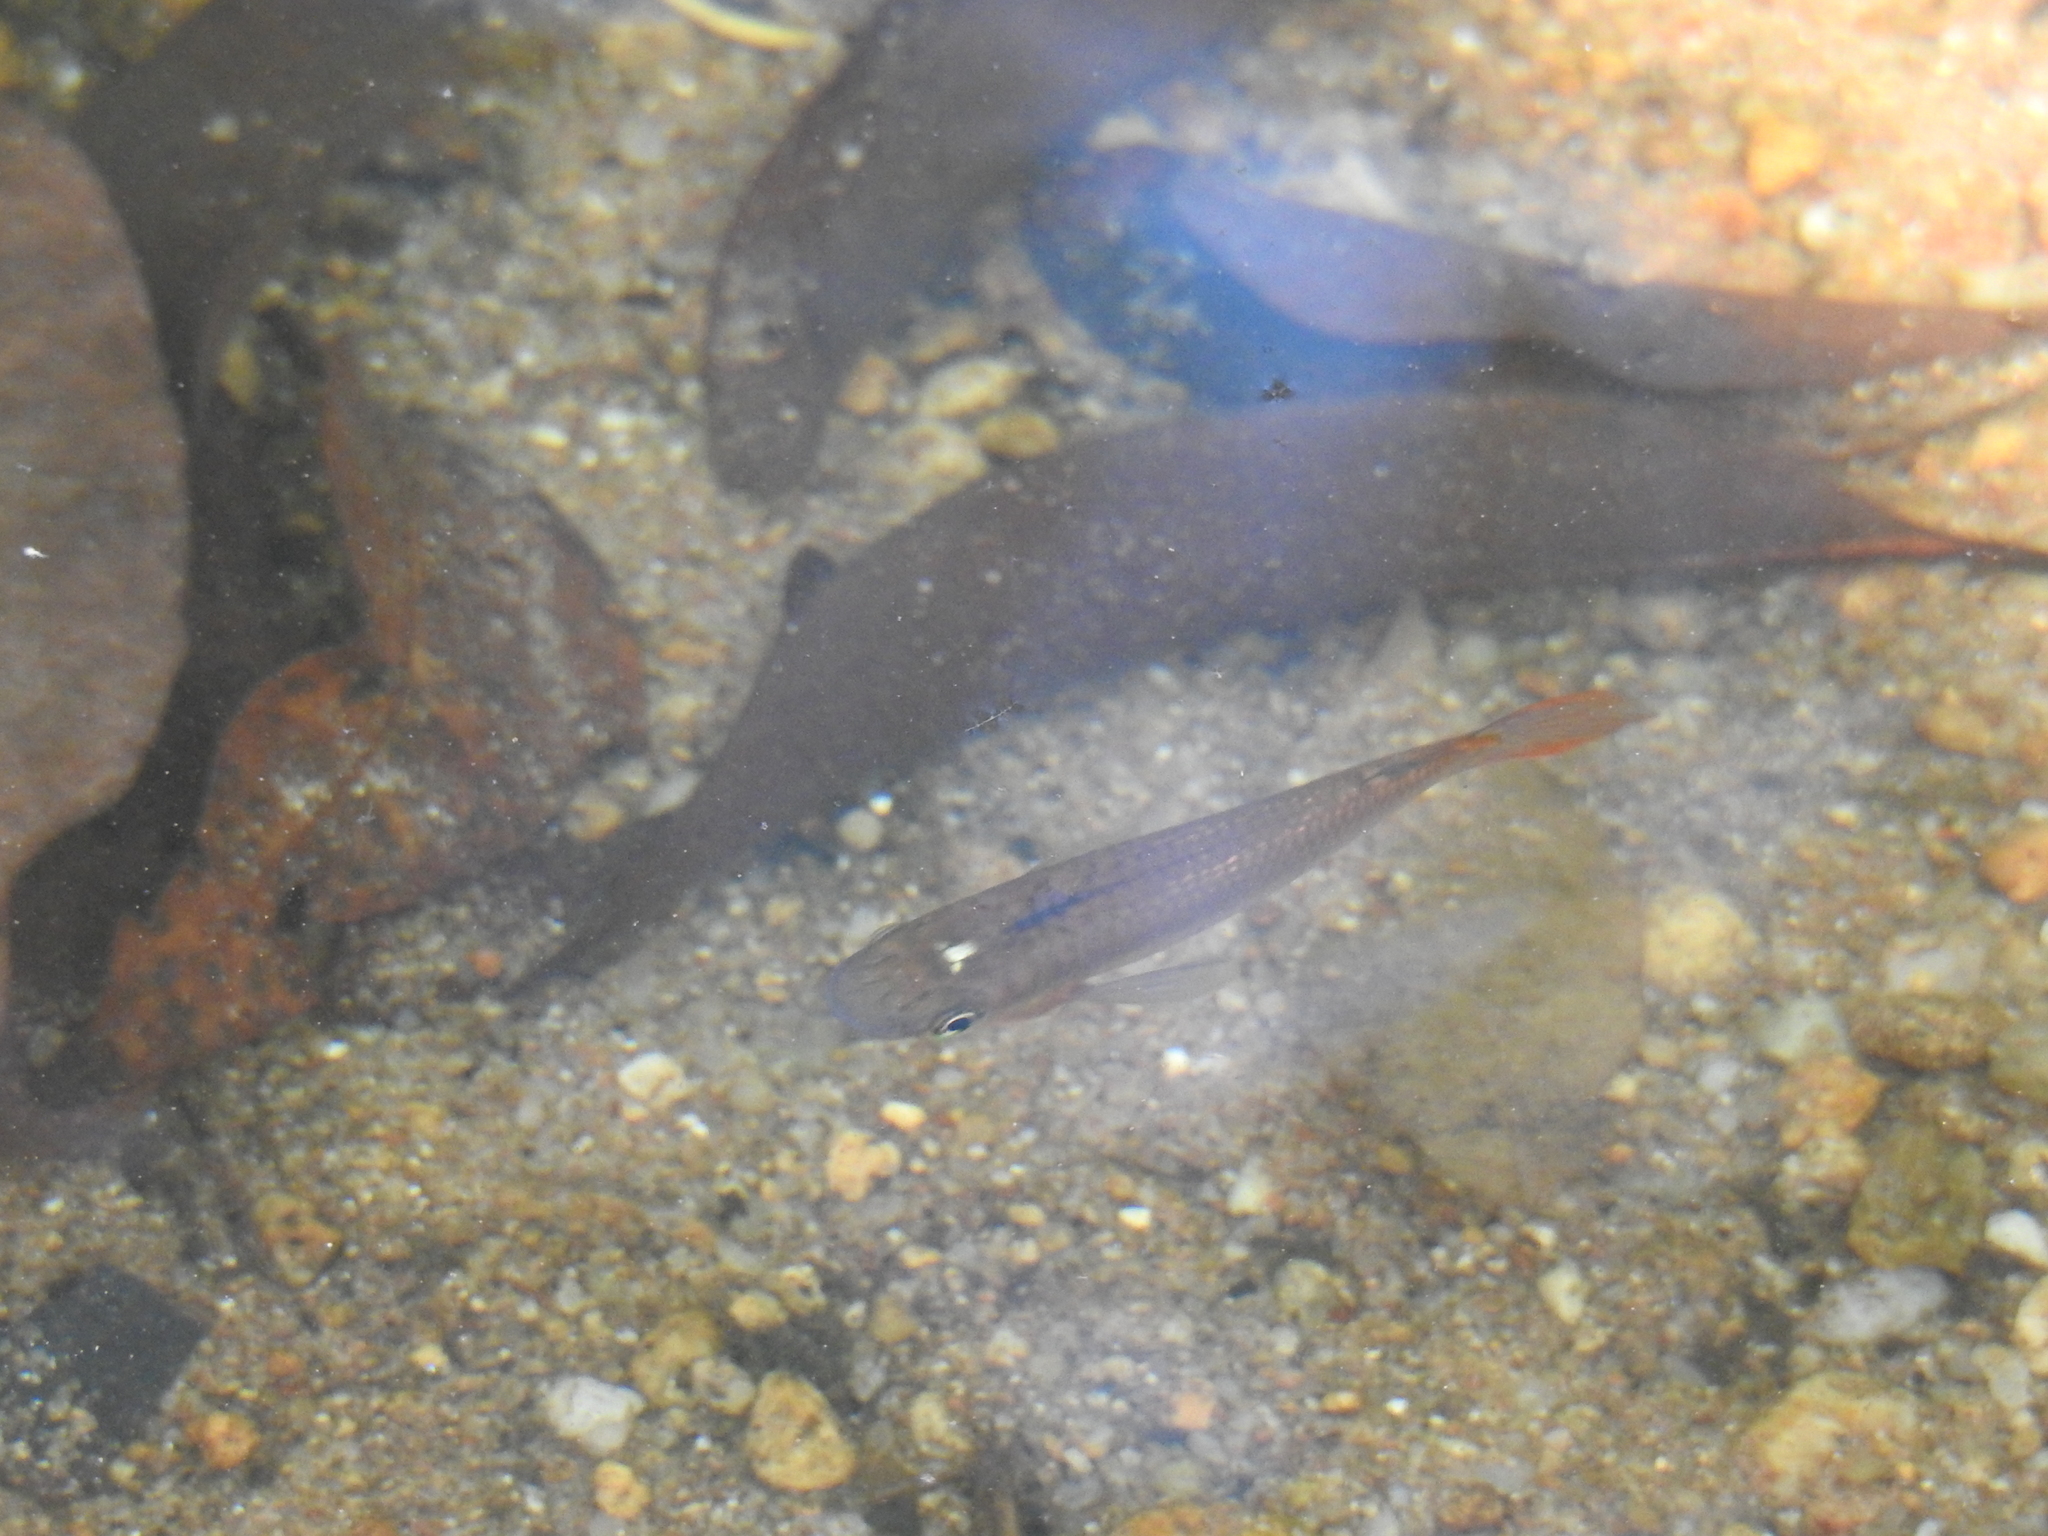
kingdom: Animalia
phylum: Chordata
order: Cyprinodontiformes
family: Aplocheilidae
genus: Aplocheilus
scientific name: Aplocheilus lineatus
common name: Striped panchax
